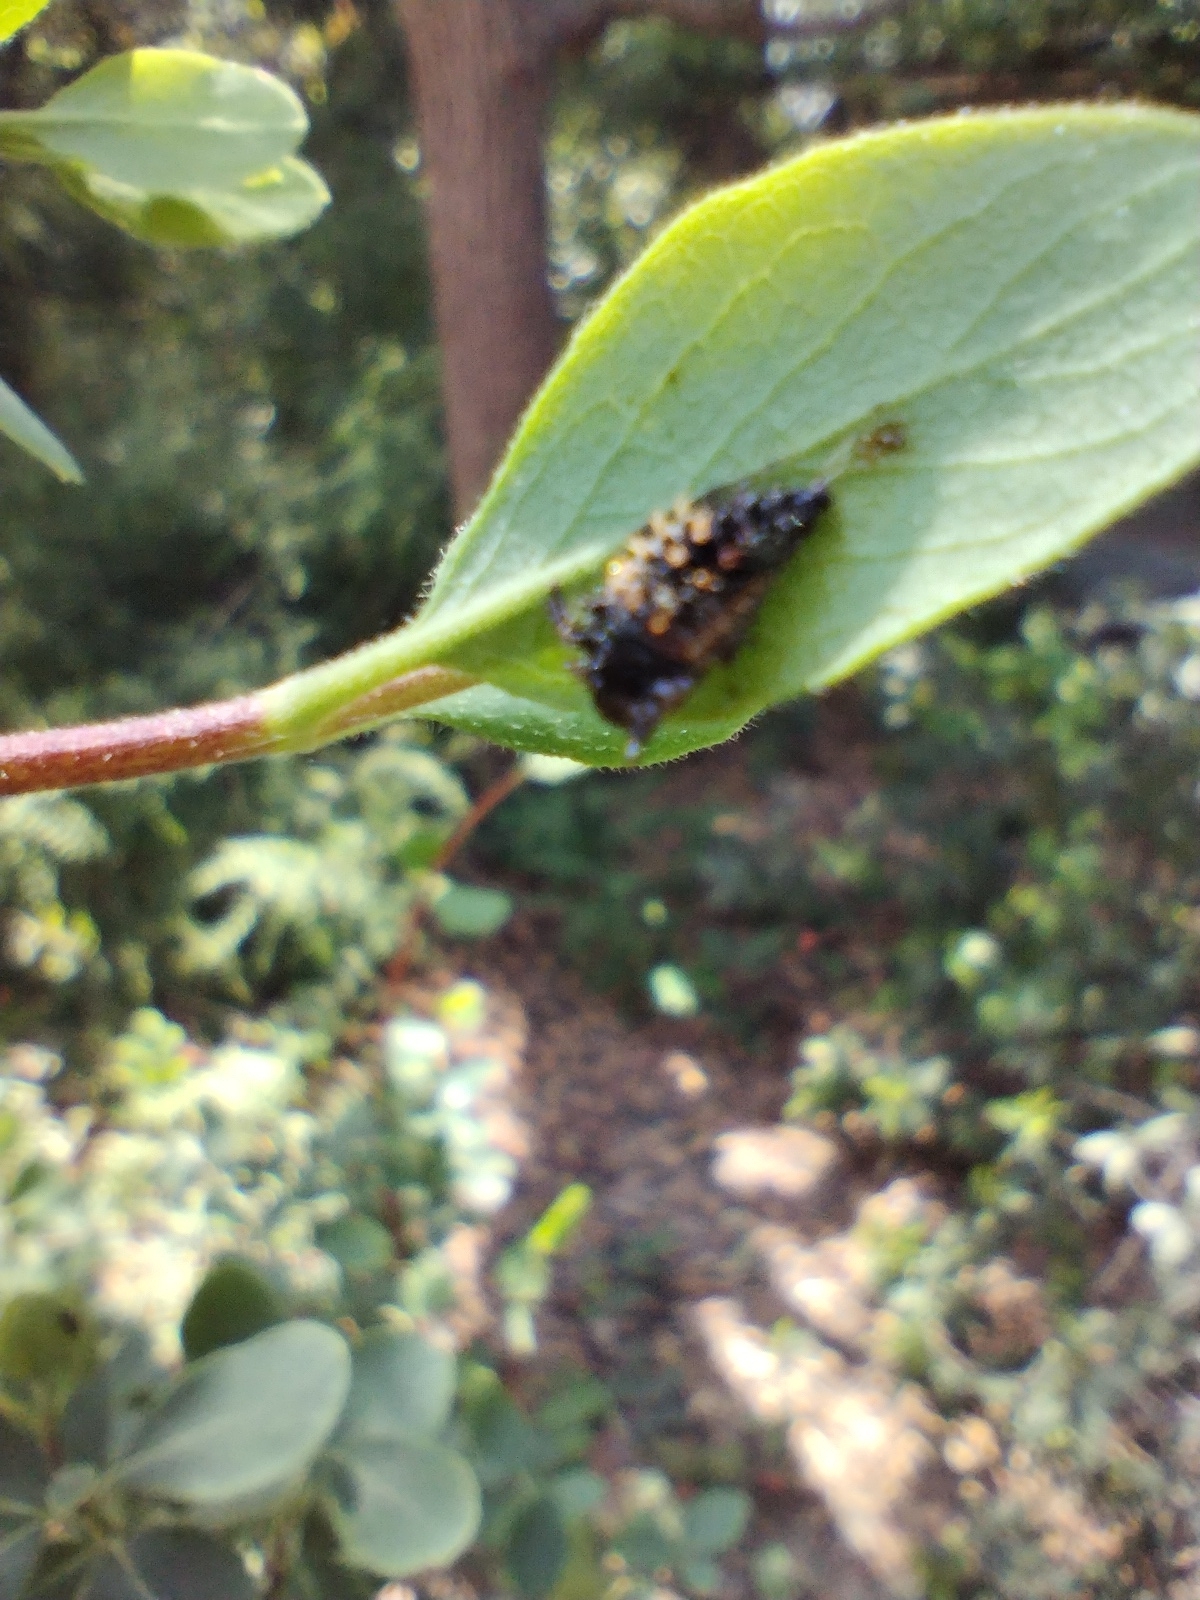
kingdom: Animalia
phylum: Arthropoda
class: Insecta
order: Coleoptera
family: Coccinellidae
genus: Harmonia
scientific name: Harmonia axyridis
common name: Harlequin ladybird
